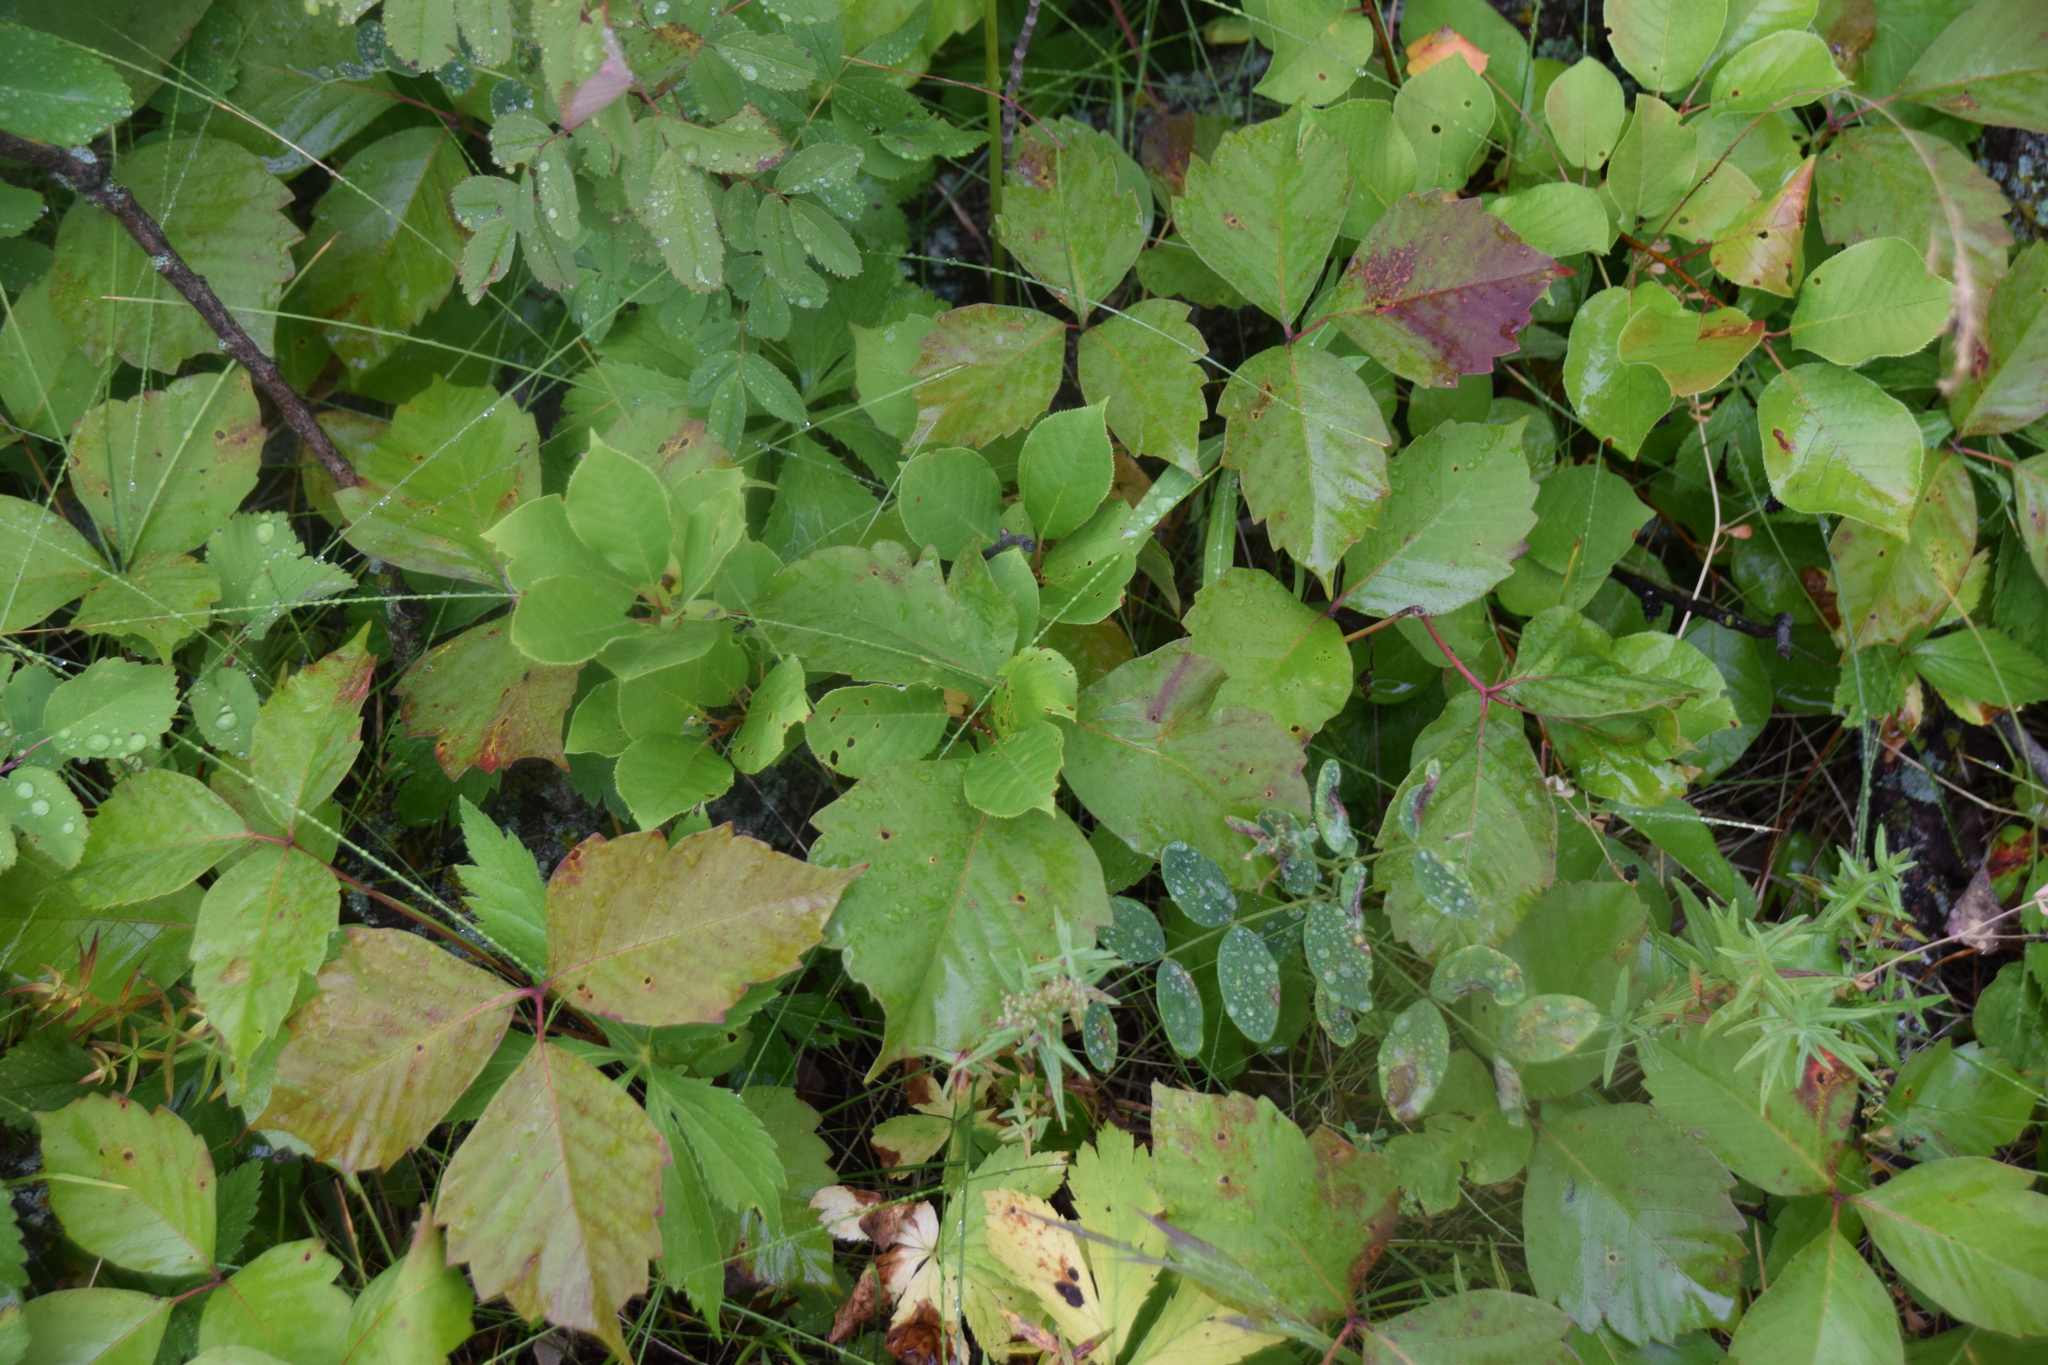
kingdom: Plantae
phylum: Tracheophyta
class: Magnoliopsida
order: Sapindales
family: Anacardiaceae
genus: Toxicodendron
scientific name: Toxicodendron rydbergii
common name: Rydberg's poison-ivy
